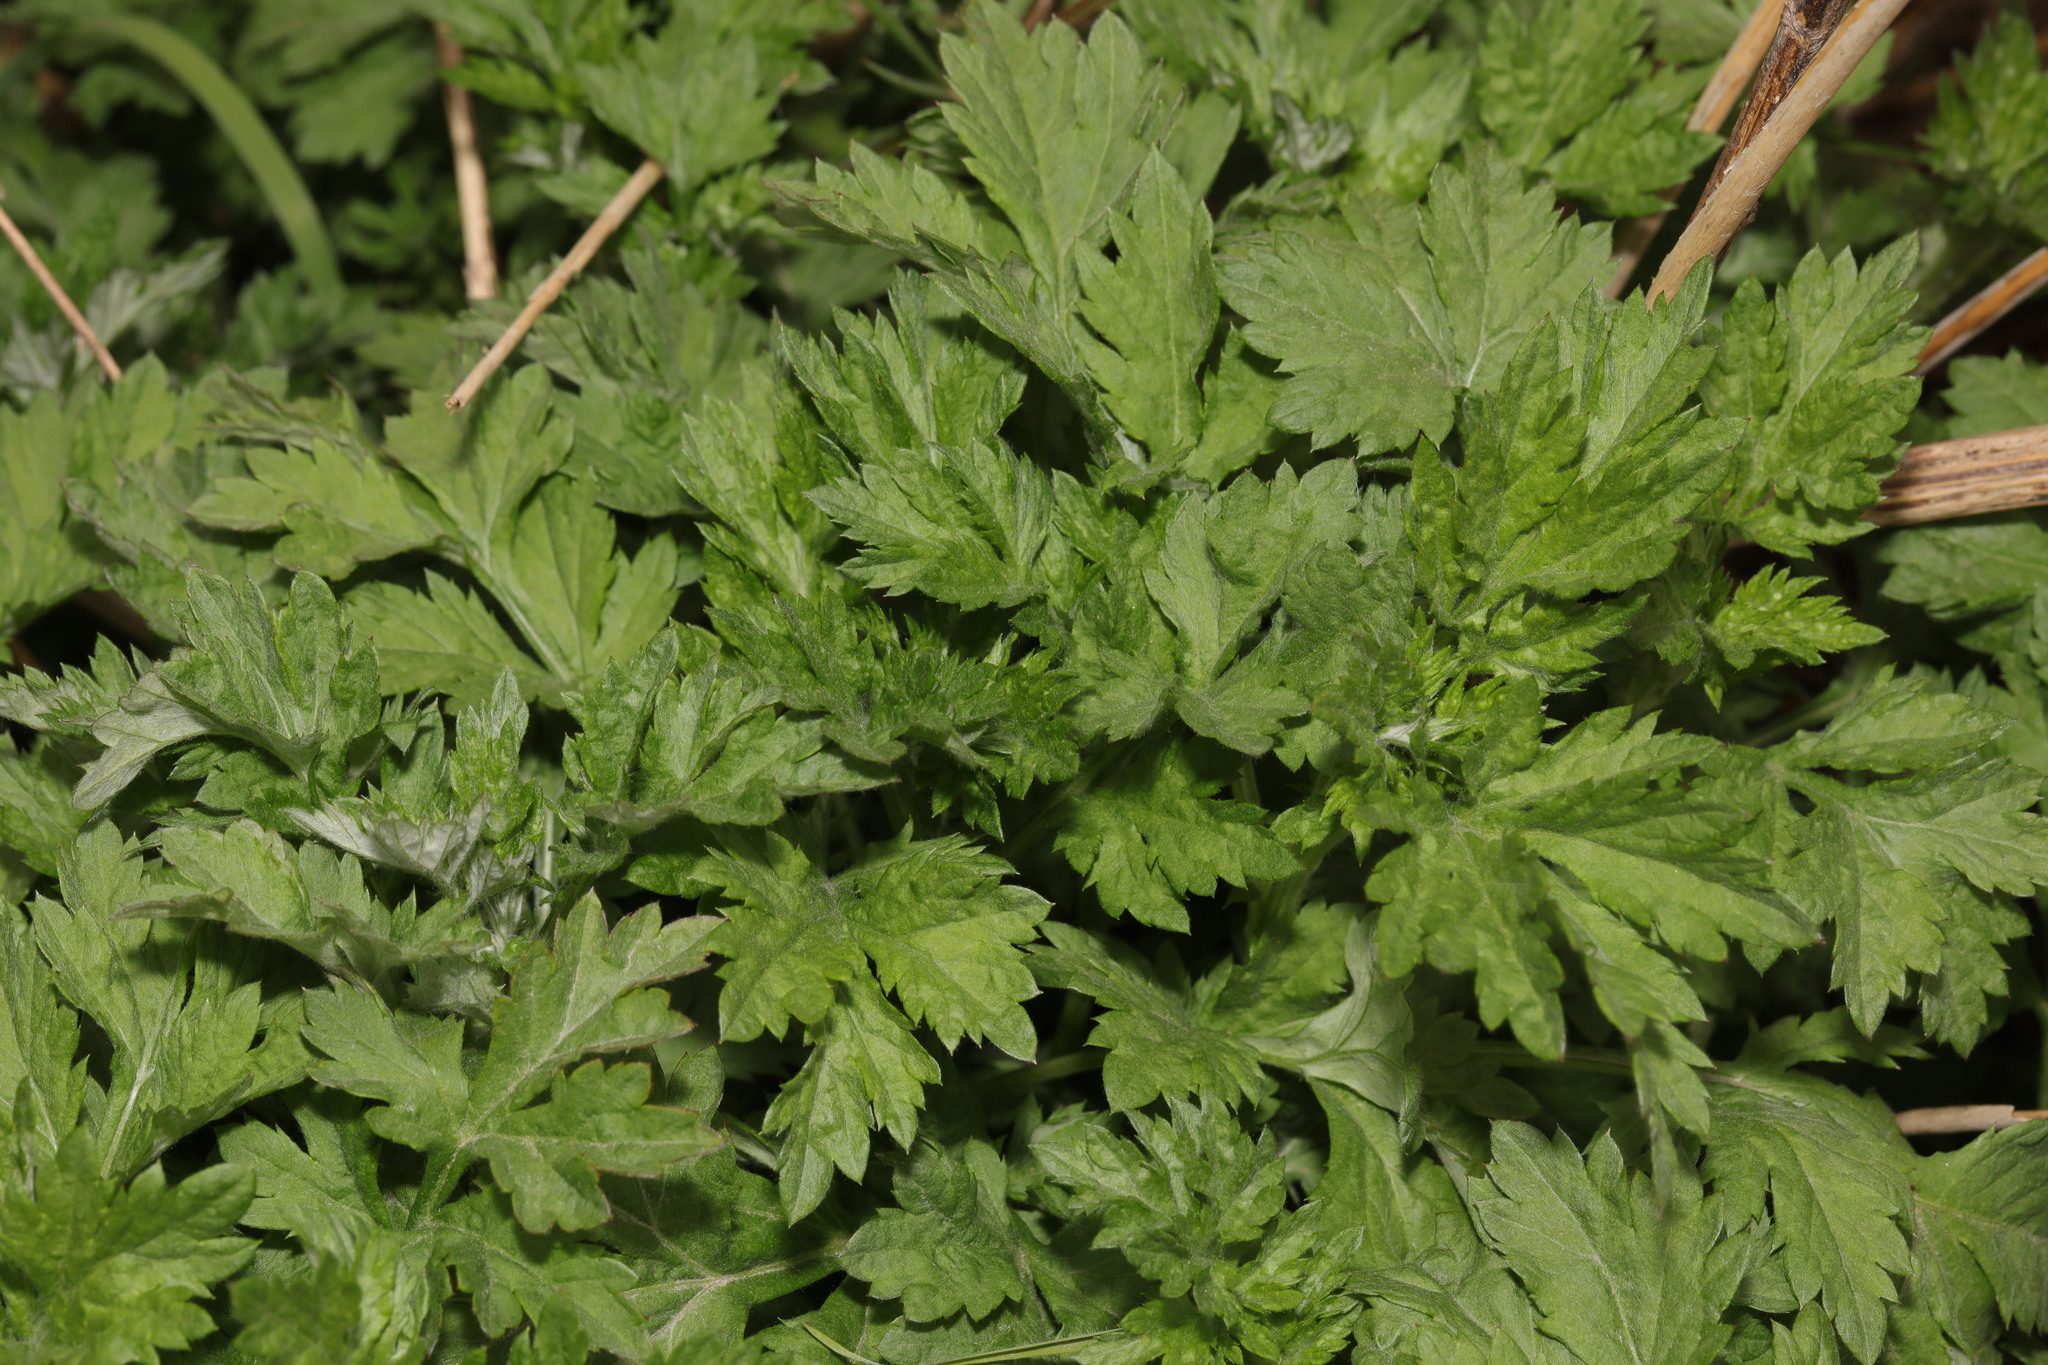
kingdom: Plantae
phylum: Tracheophyta
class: Magnoliopsida
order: Asterales
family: Asteraceae
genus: Artemisia
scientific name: Artemisia vulgaris
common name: Mugwort
